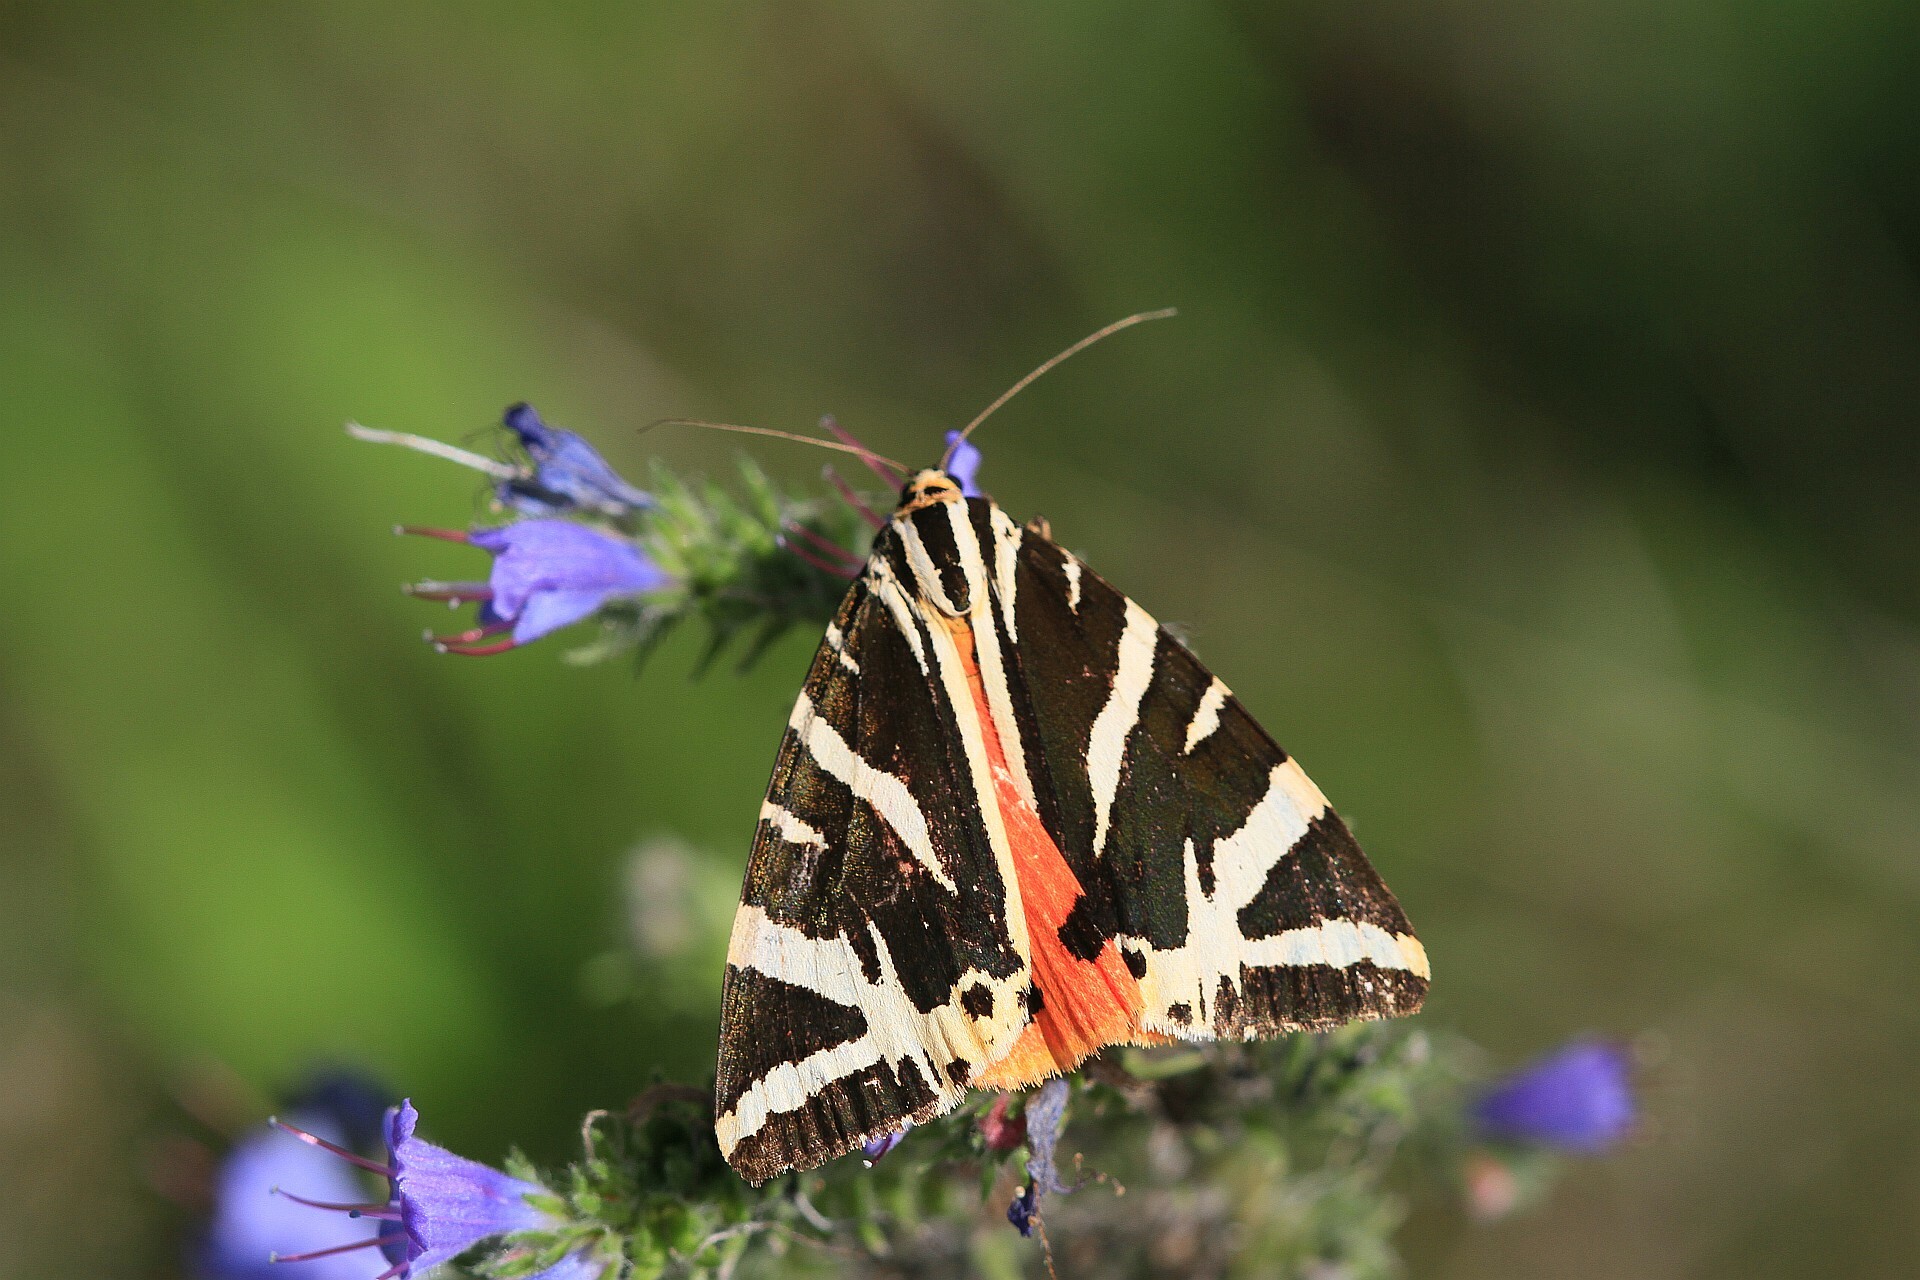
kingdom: Animalia
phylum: Arthropoda
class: Insecta
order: Lepidoptera
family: Erebidae
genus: Euplagia
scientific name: Euplagia quadripunctaria
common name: Jersey tiger
